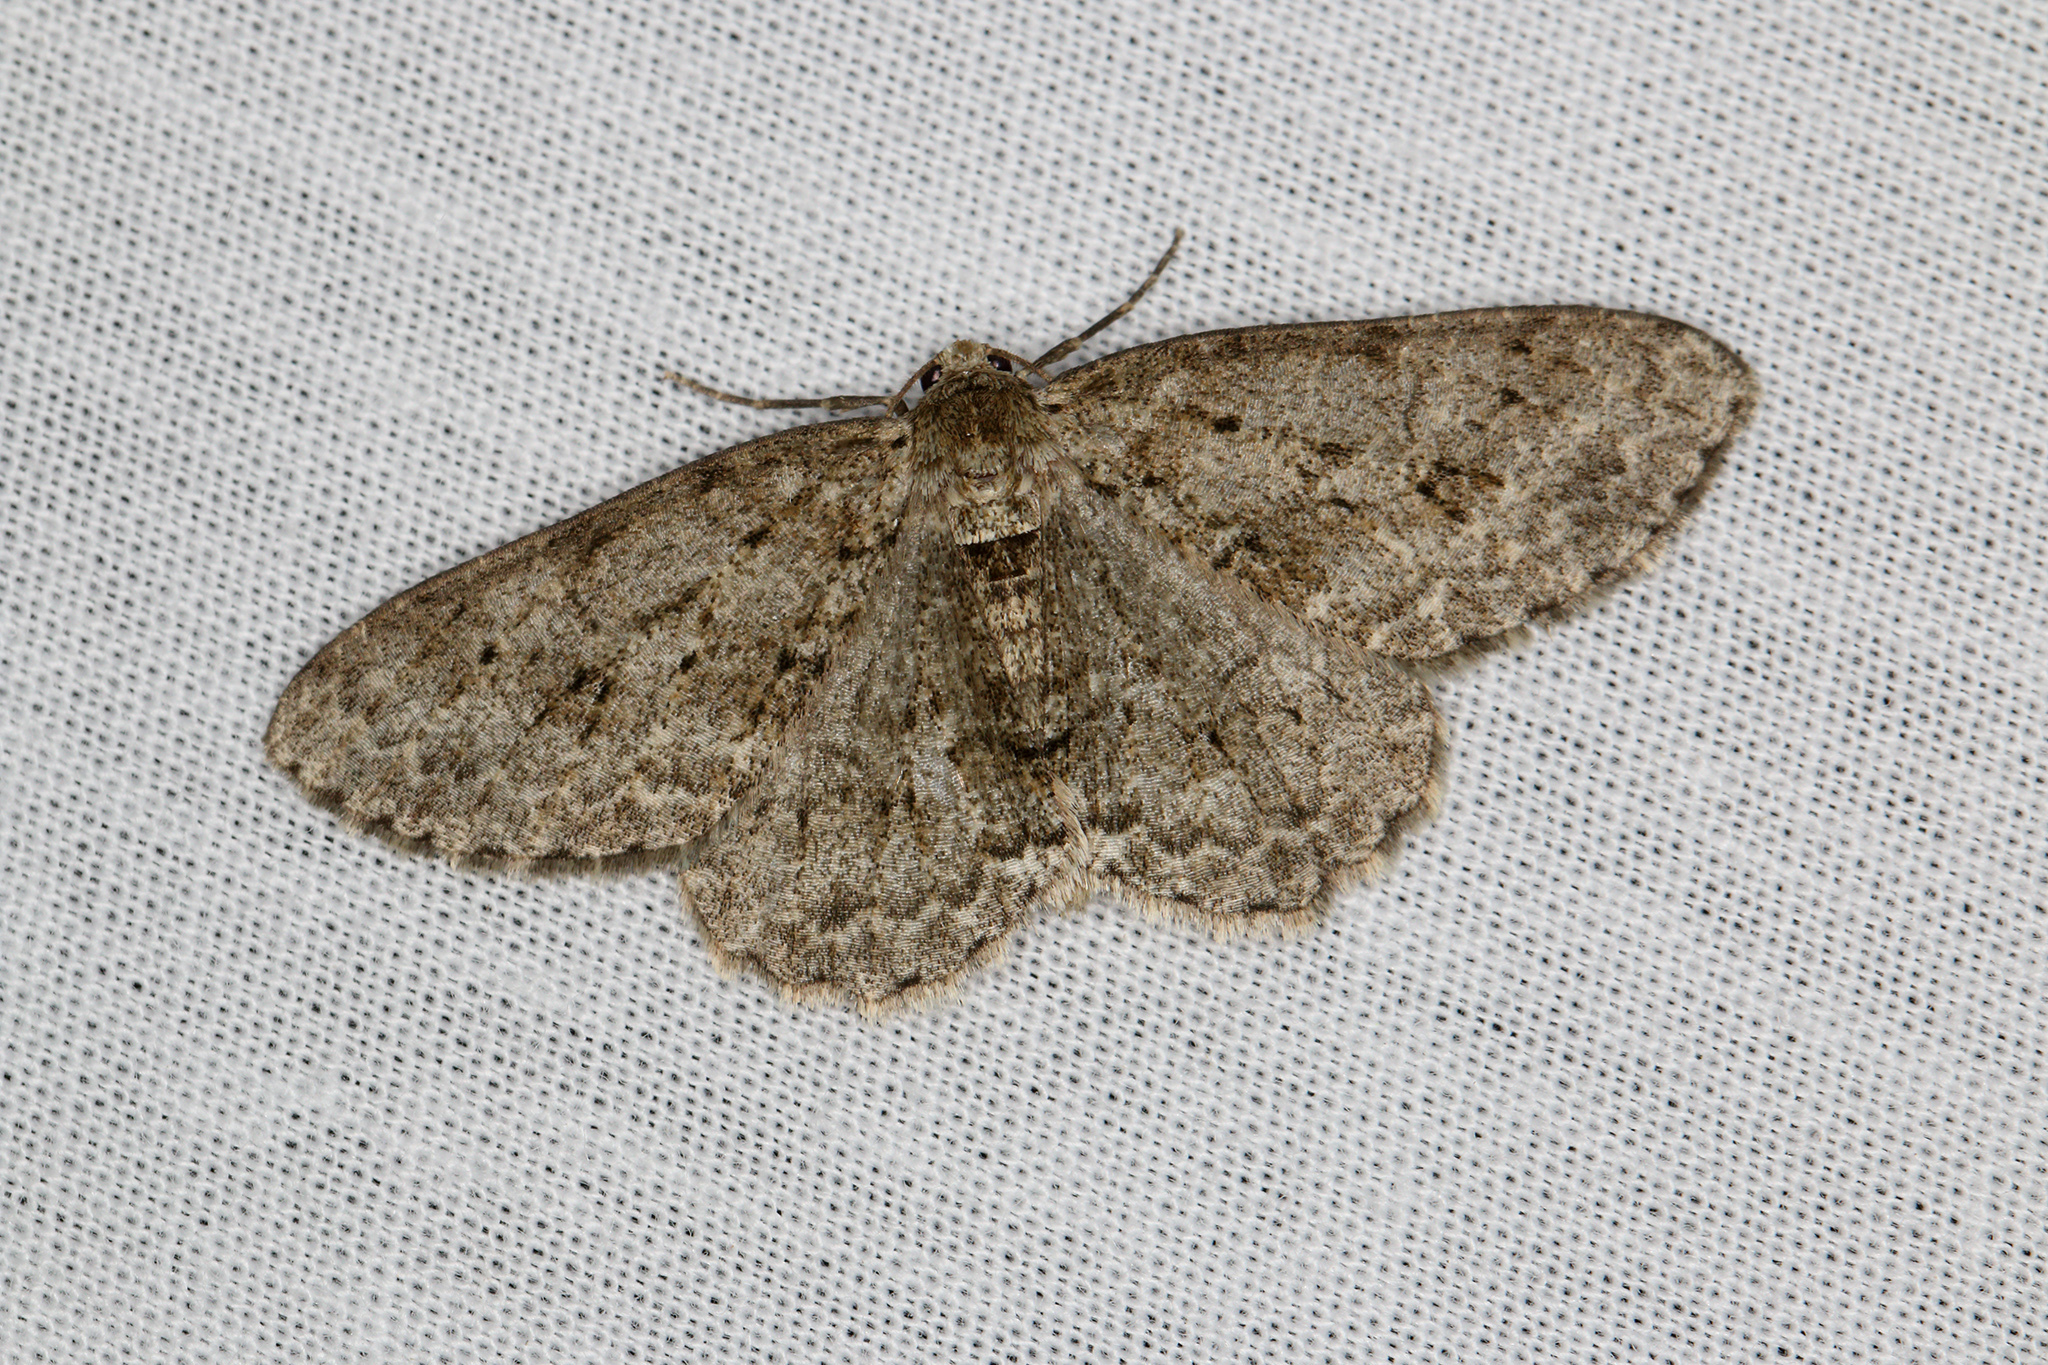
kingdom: Animalia
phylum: Arthropoda
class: Insecta
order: Lepidoptera
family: Geometridae
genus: Ectropis
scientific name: Ectropis crepuscularia
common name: Engrailed
